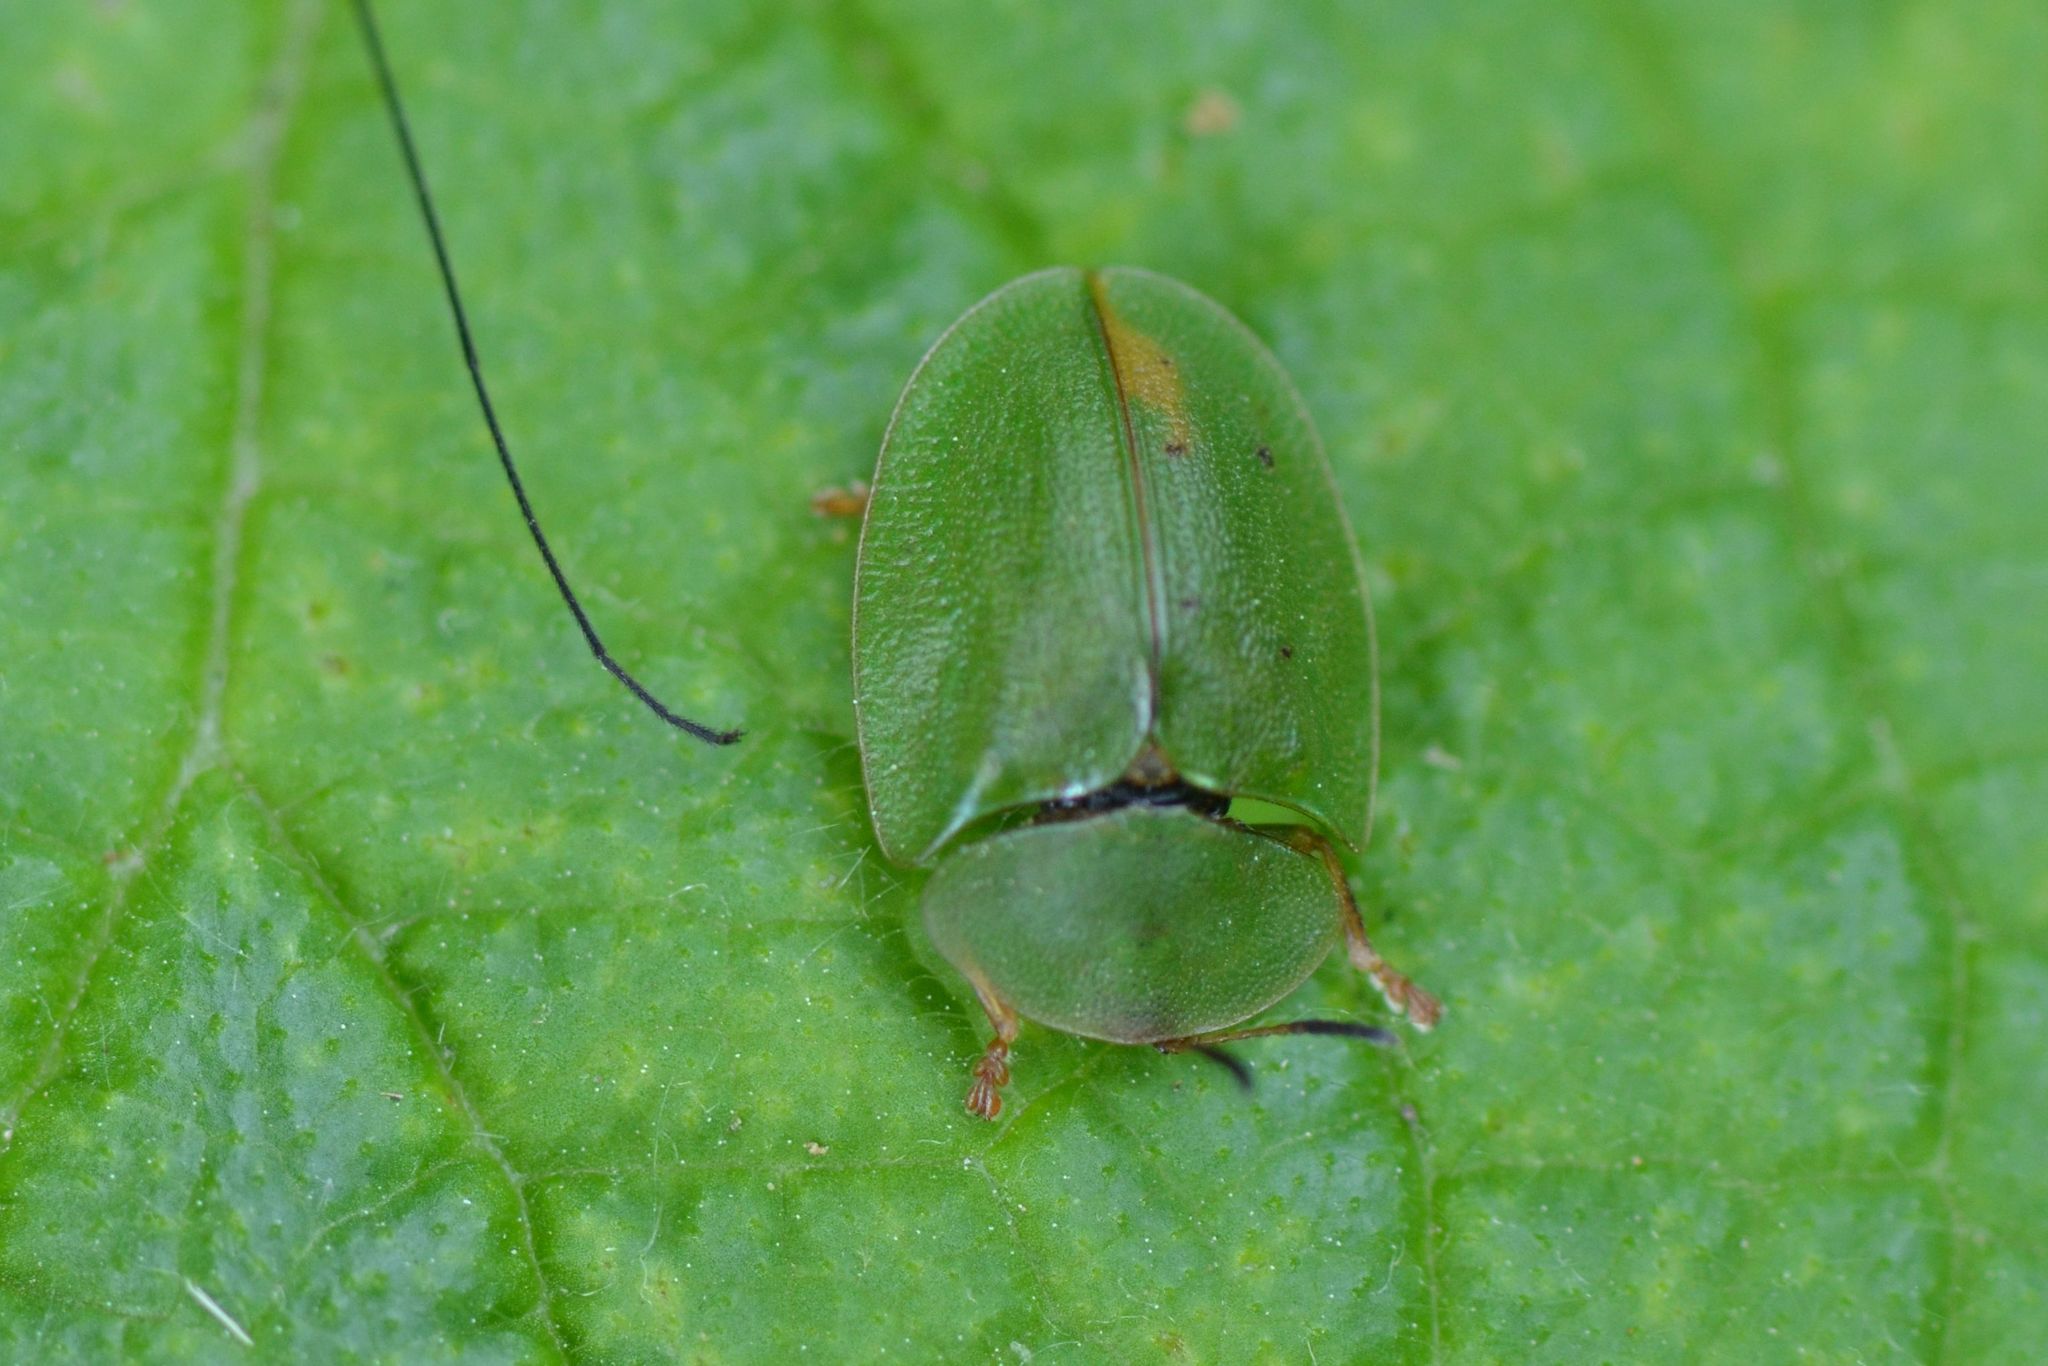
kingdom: Animalia
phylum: Arthropoda
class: Insecta
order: Coleoptera
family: Chrysomelidae
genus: Cassida
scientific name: Cassida viridis
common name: Green tortoise beetle
